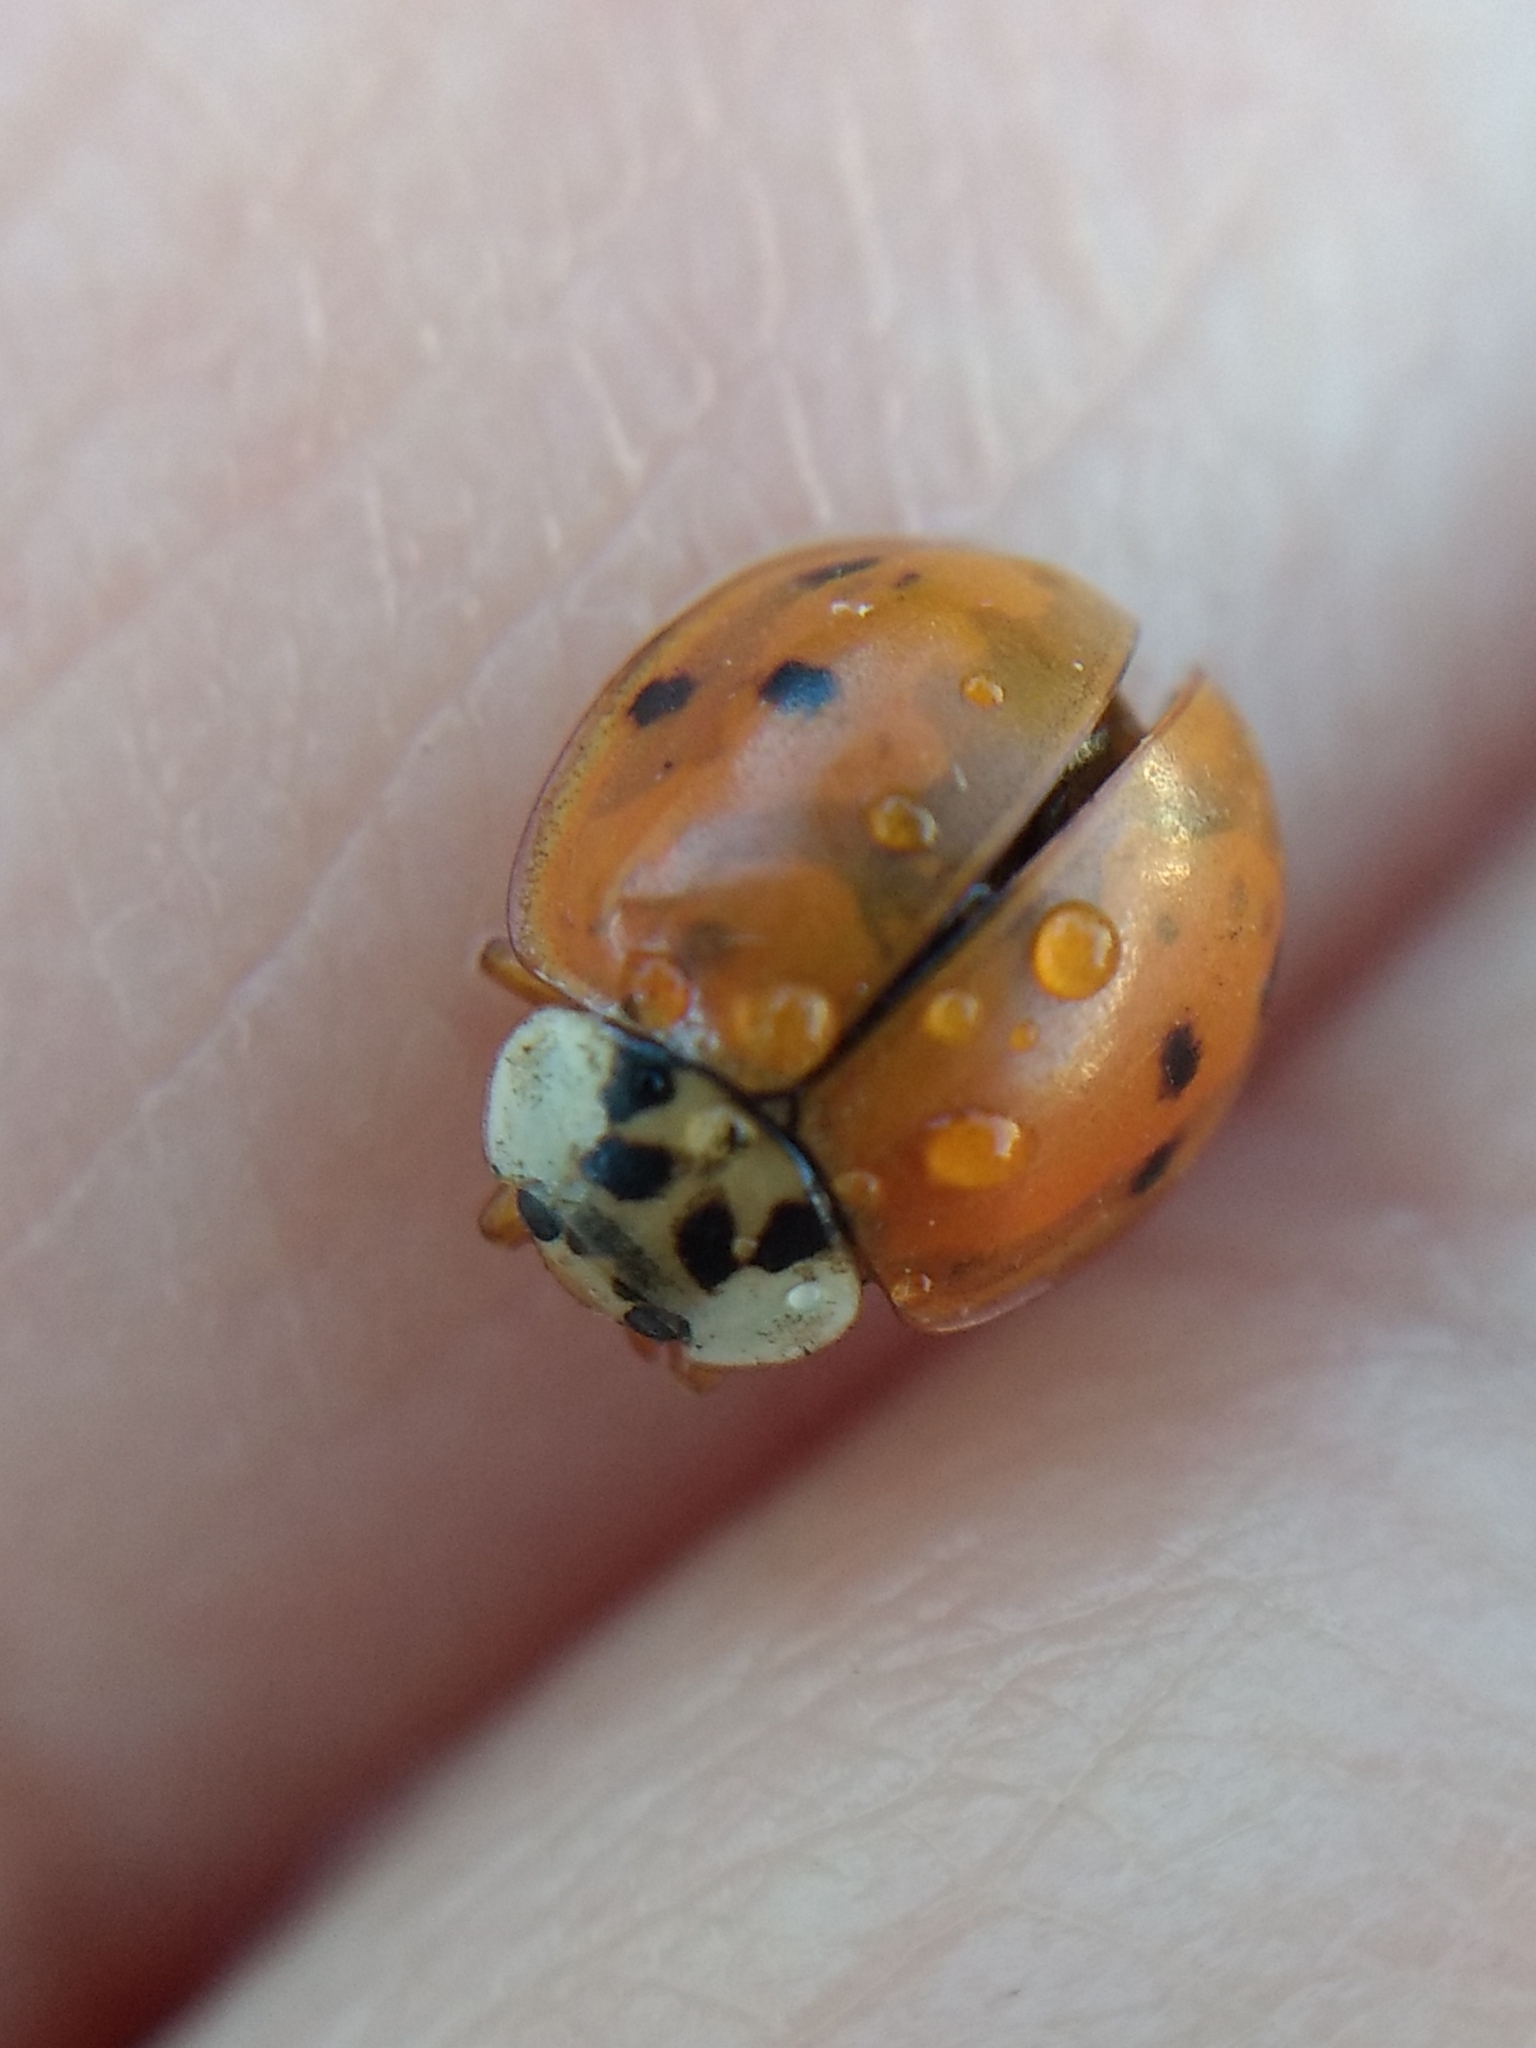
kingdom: Animalia
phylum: Arthropoda
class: Insecta
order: Coleoptera
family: Coccinellidae
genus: Harmonia
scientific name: Harmonia axyridis
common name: Harlequin ladybird
